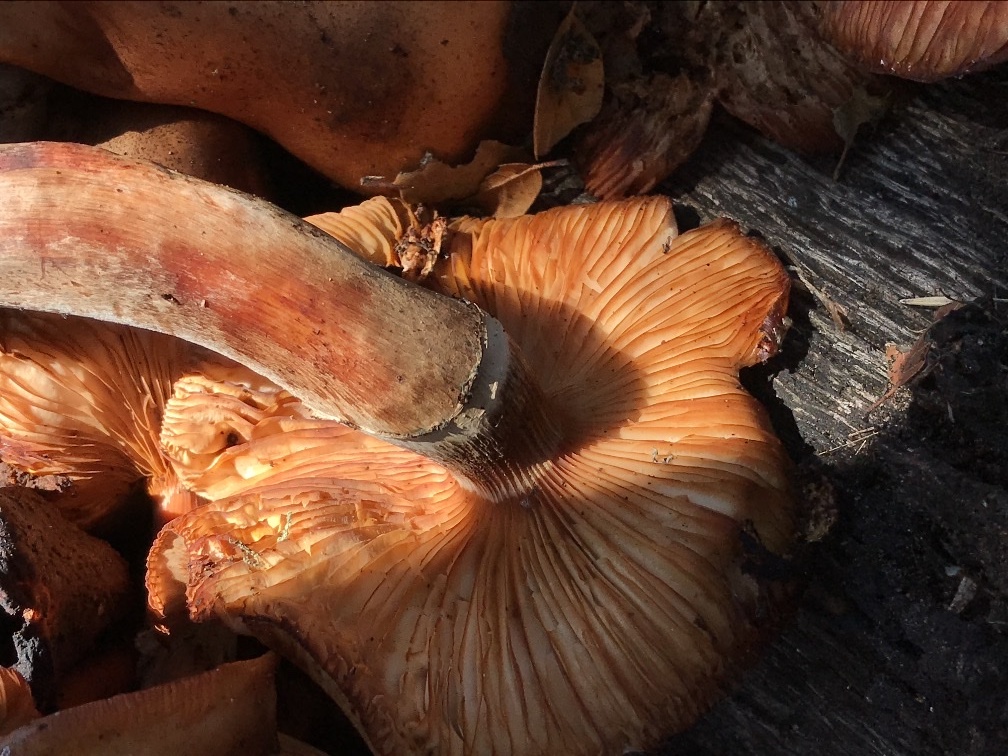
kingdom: Fungi
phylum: Basidiomycota
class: Agaricomycetes
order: Agaricales
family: Physalacriaceae
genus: Armillaria
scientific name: Armillaria mellea
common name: Honey fungus
